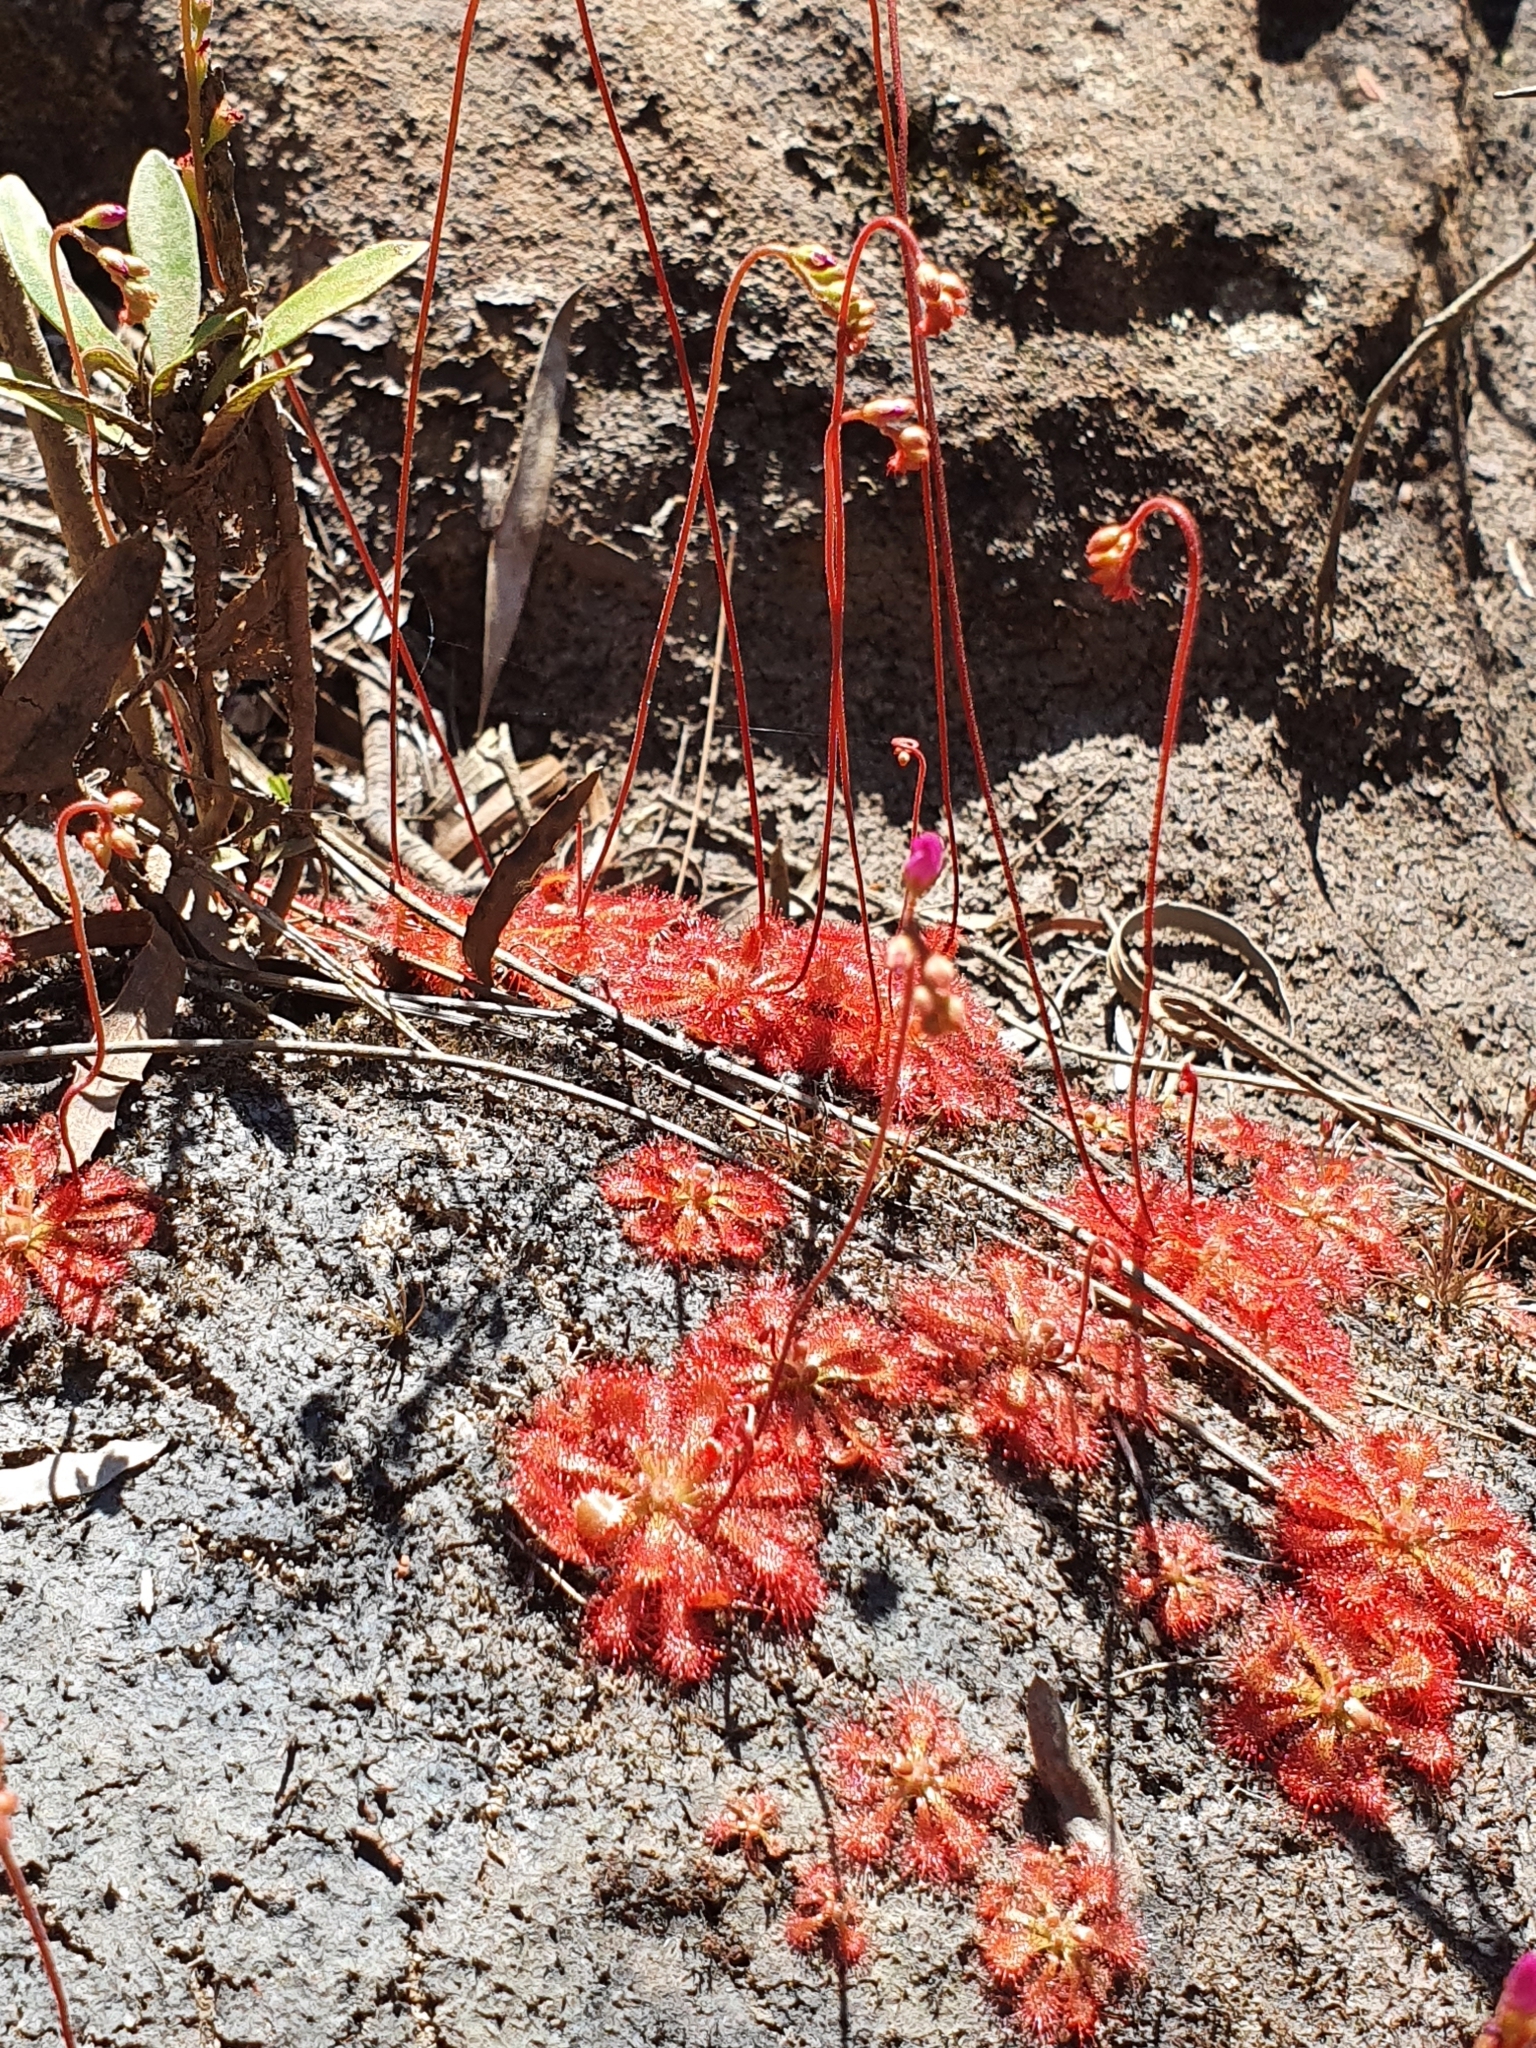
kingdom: Plantae
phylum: Tracheophyta
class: Magnoliopsida
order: Caryophyllales
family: Droseraceae
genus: Drosera
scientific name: Drosera spatulata
